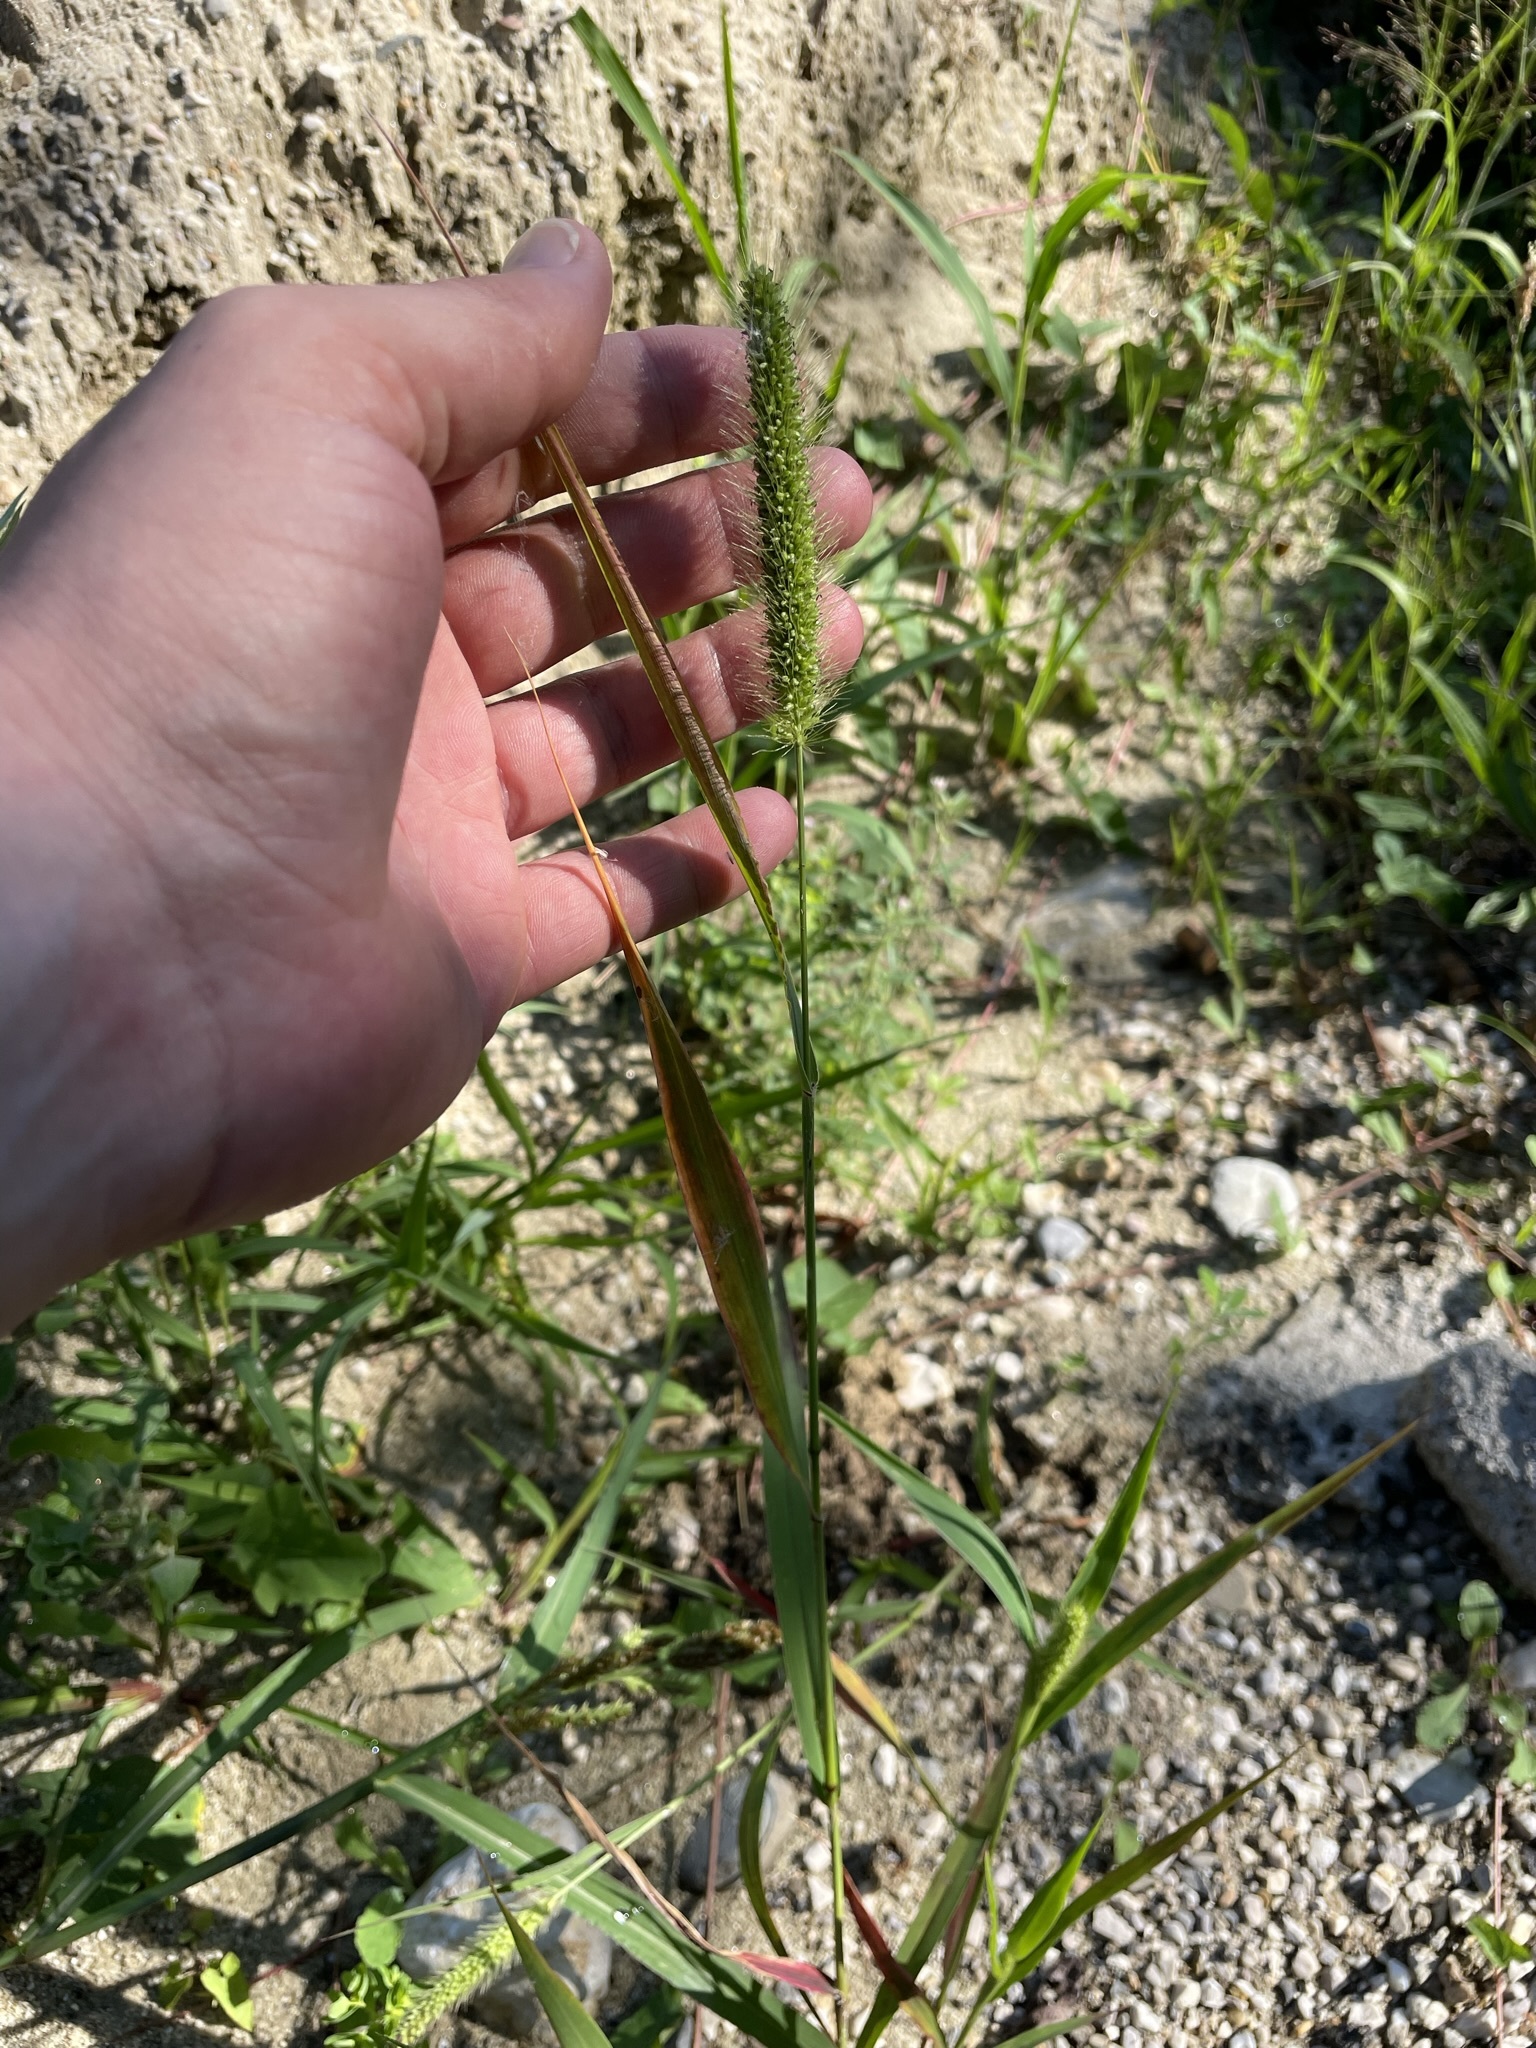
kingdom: Plantae
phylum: Tracheophyta
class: Liliopsida
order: Poales
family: Poaceae
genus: Setaria
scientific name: Setaria viridis
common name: Green bristlegrass
